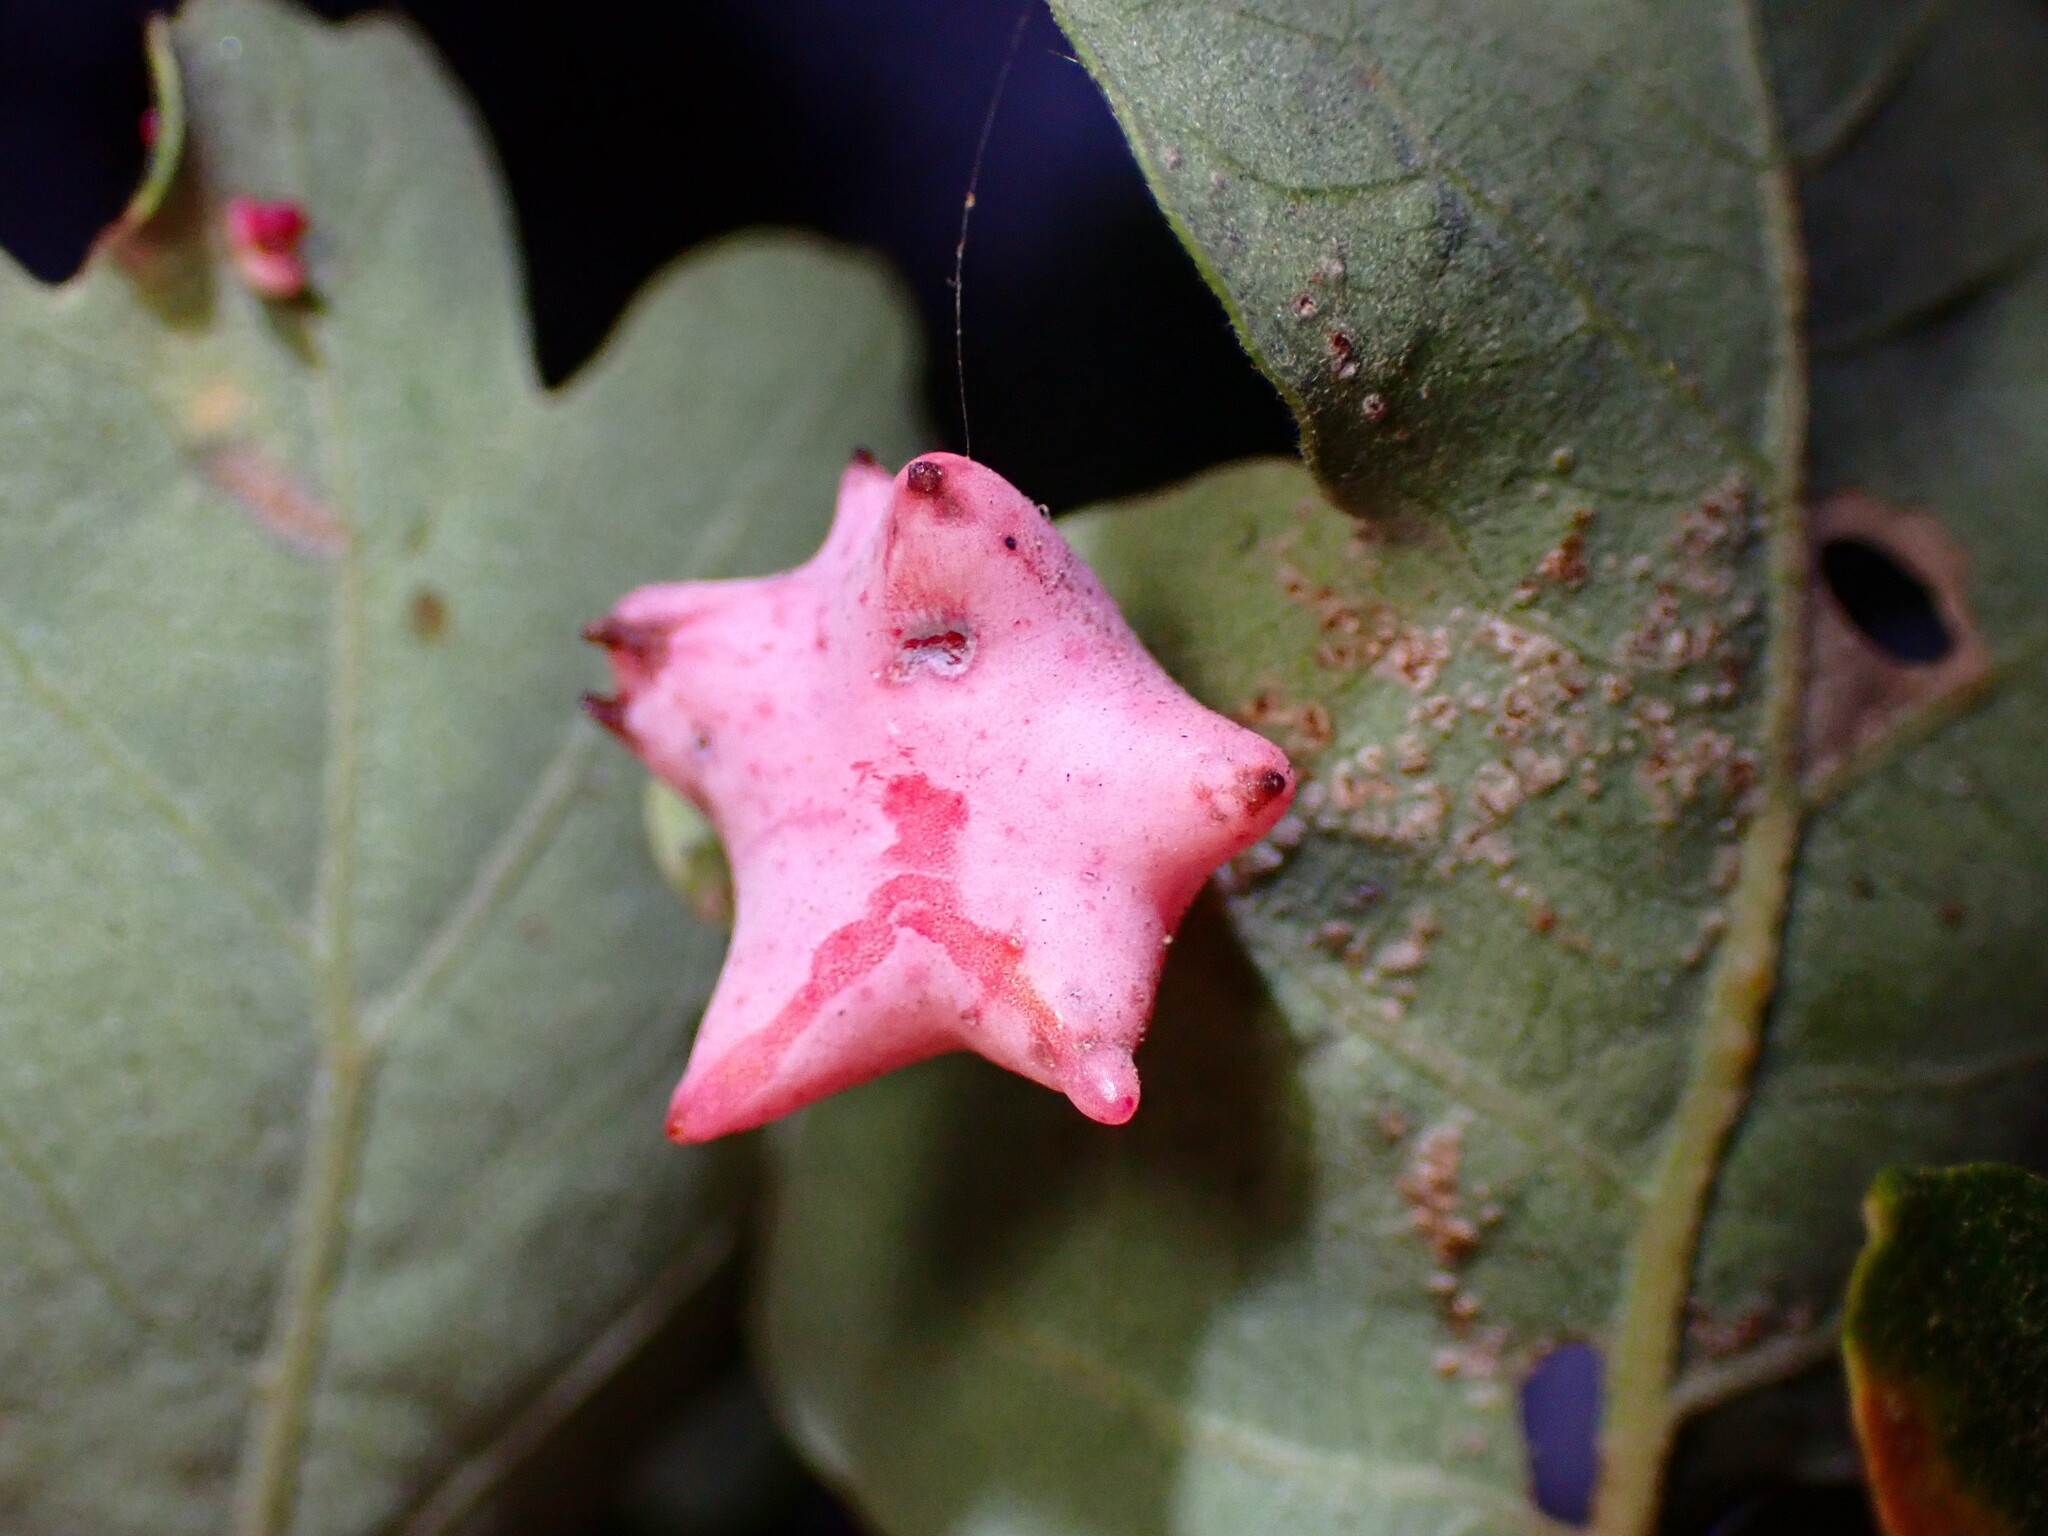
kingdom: Animalia
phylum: Arthropoda
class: Insecta
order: Hymenoptera
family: Cynipidae
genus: Cynips
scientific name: Cynips douglasi
